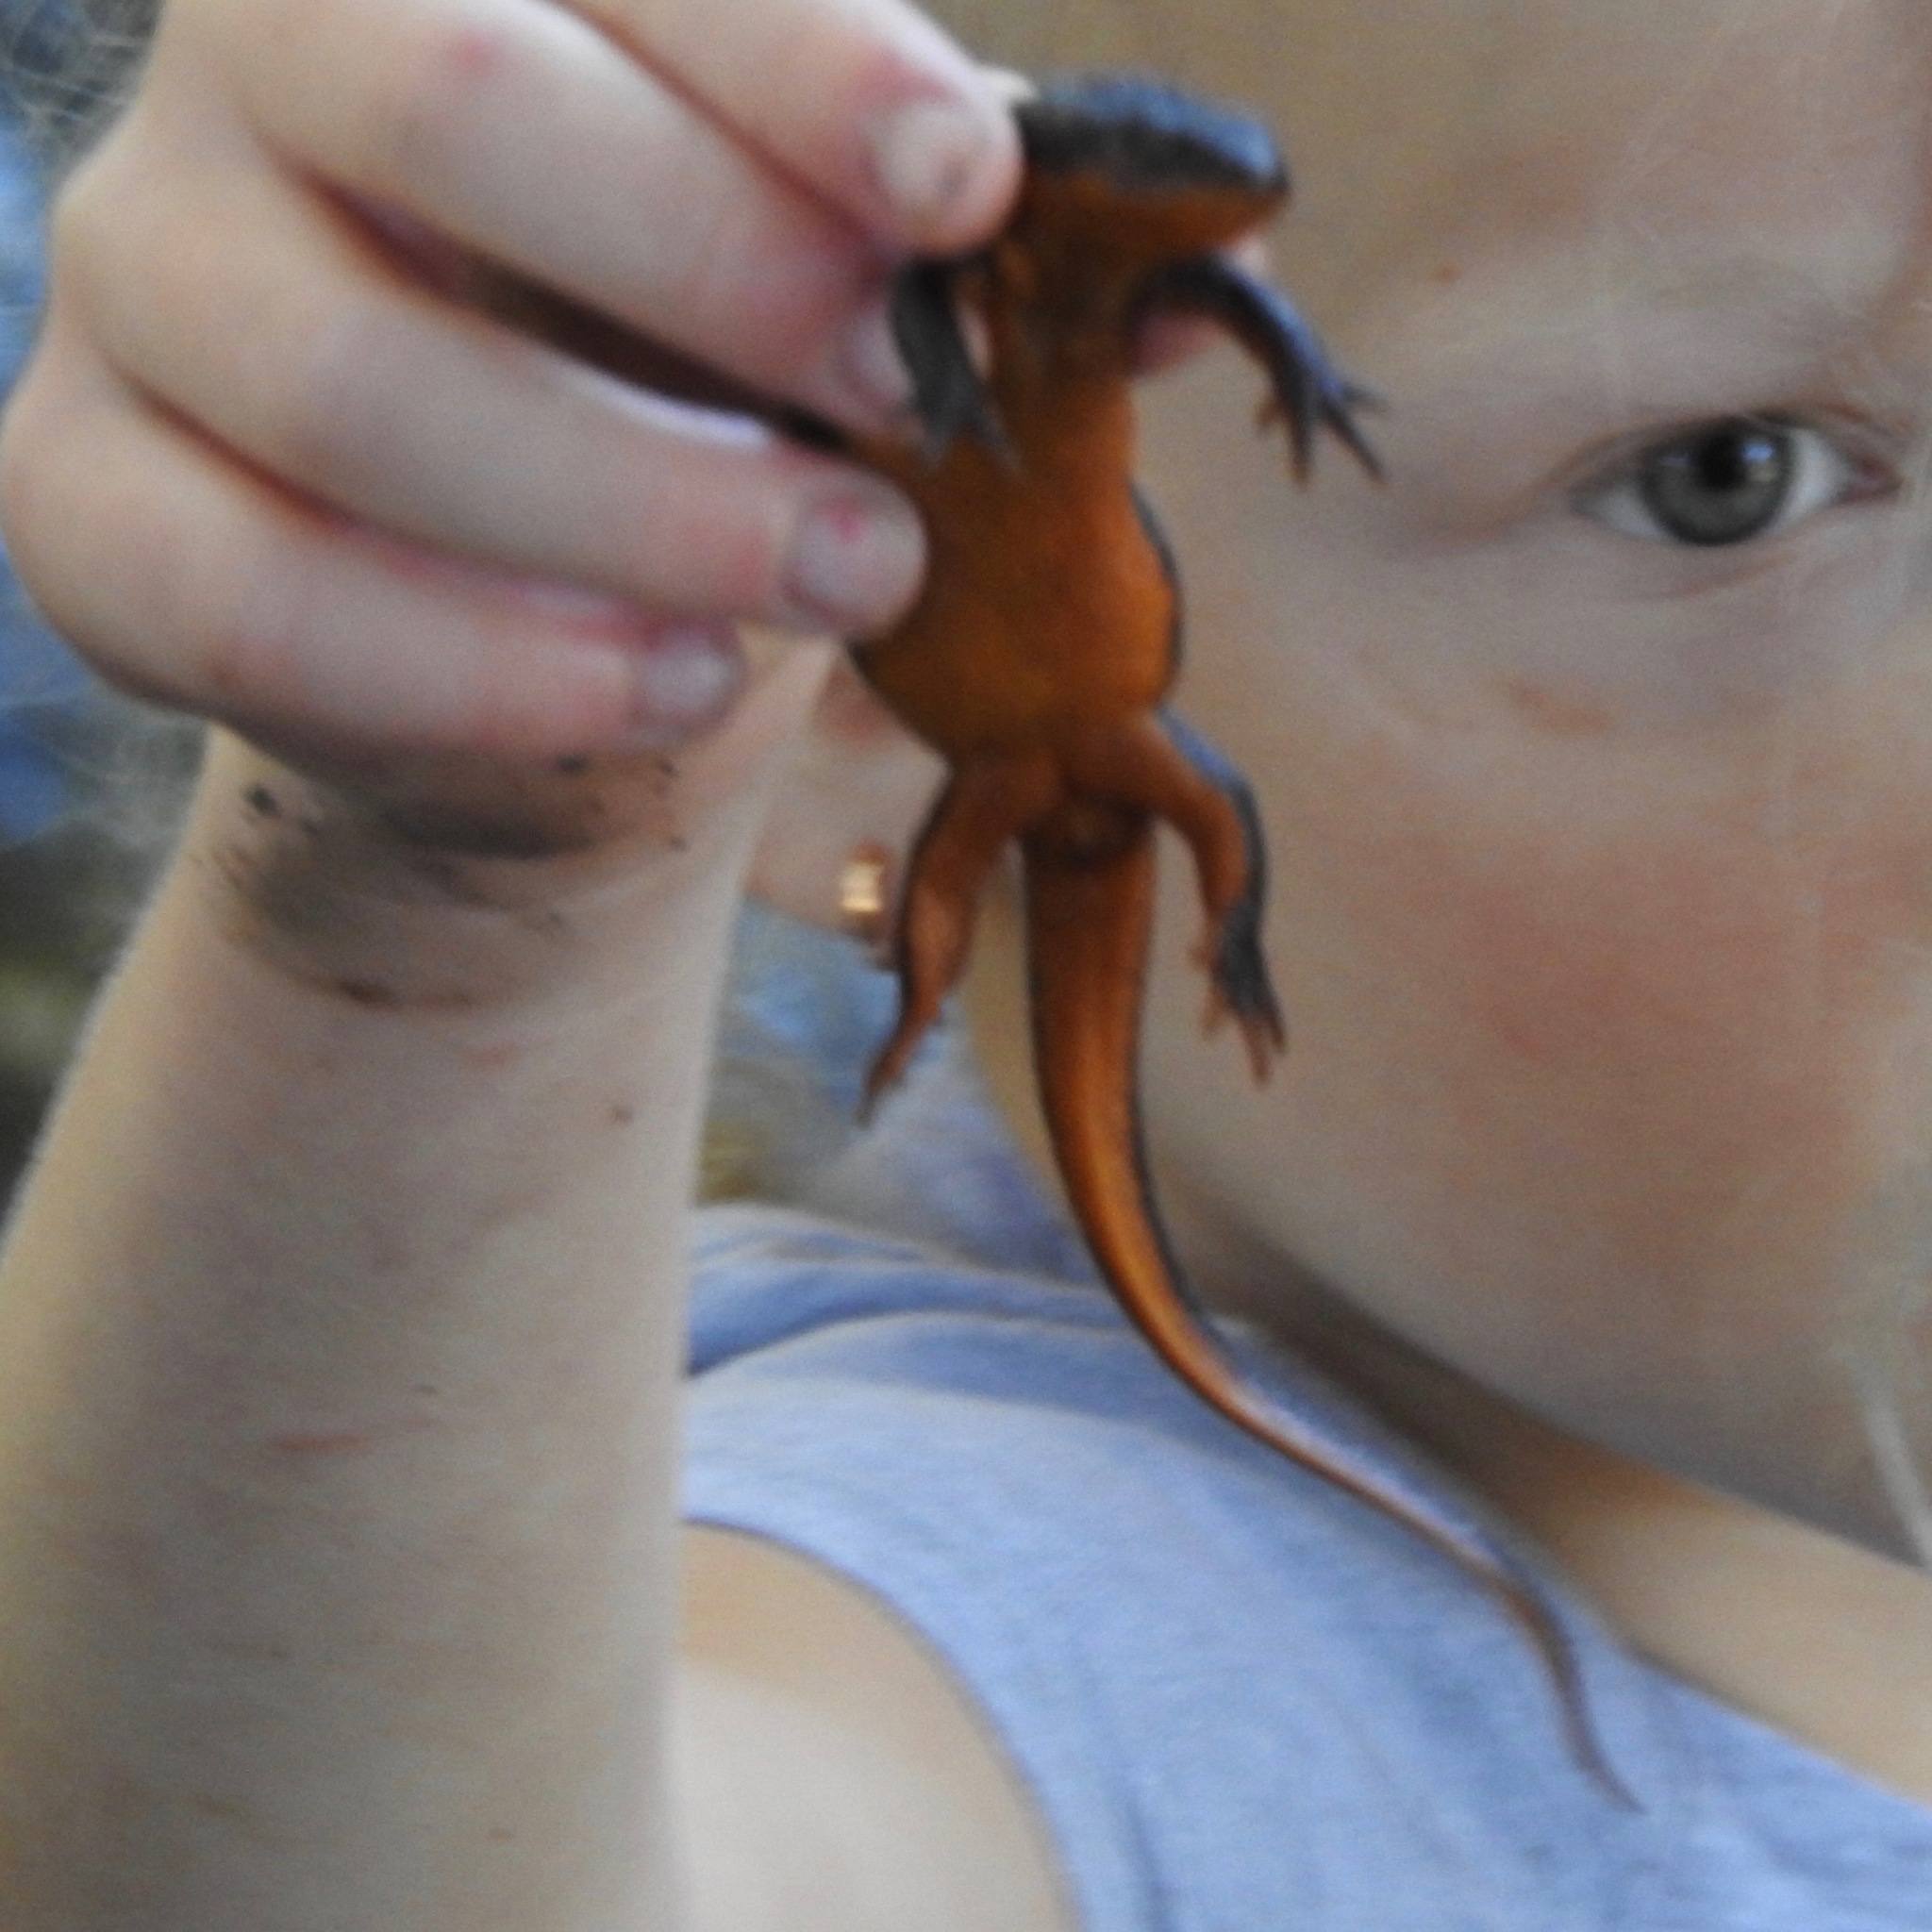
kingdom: Animalia
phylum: Chordata
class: Amphibia
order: Caudata
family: Salamandridae
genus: Taricha
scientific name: Taricha granulosa
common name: Roughskin newt
